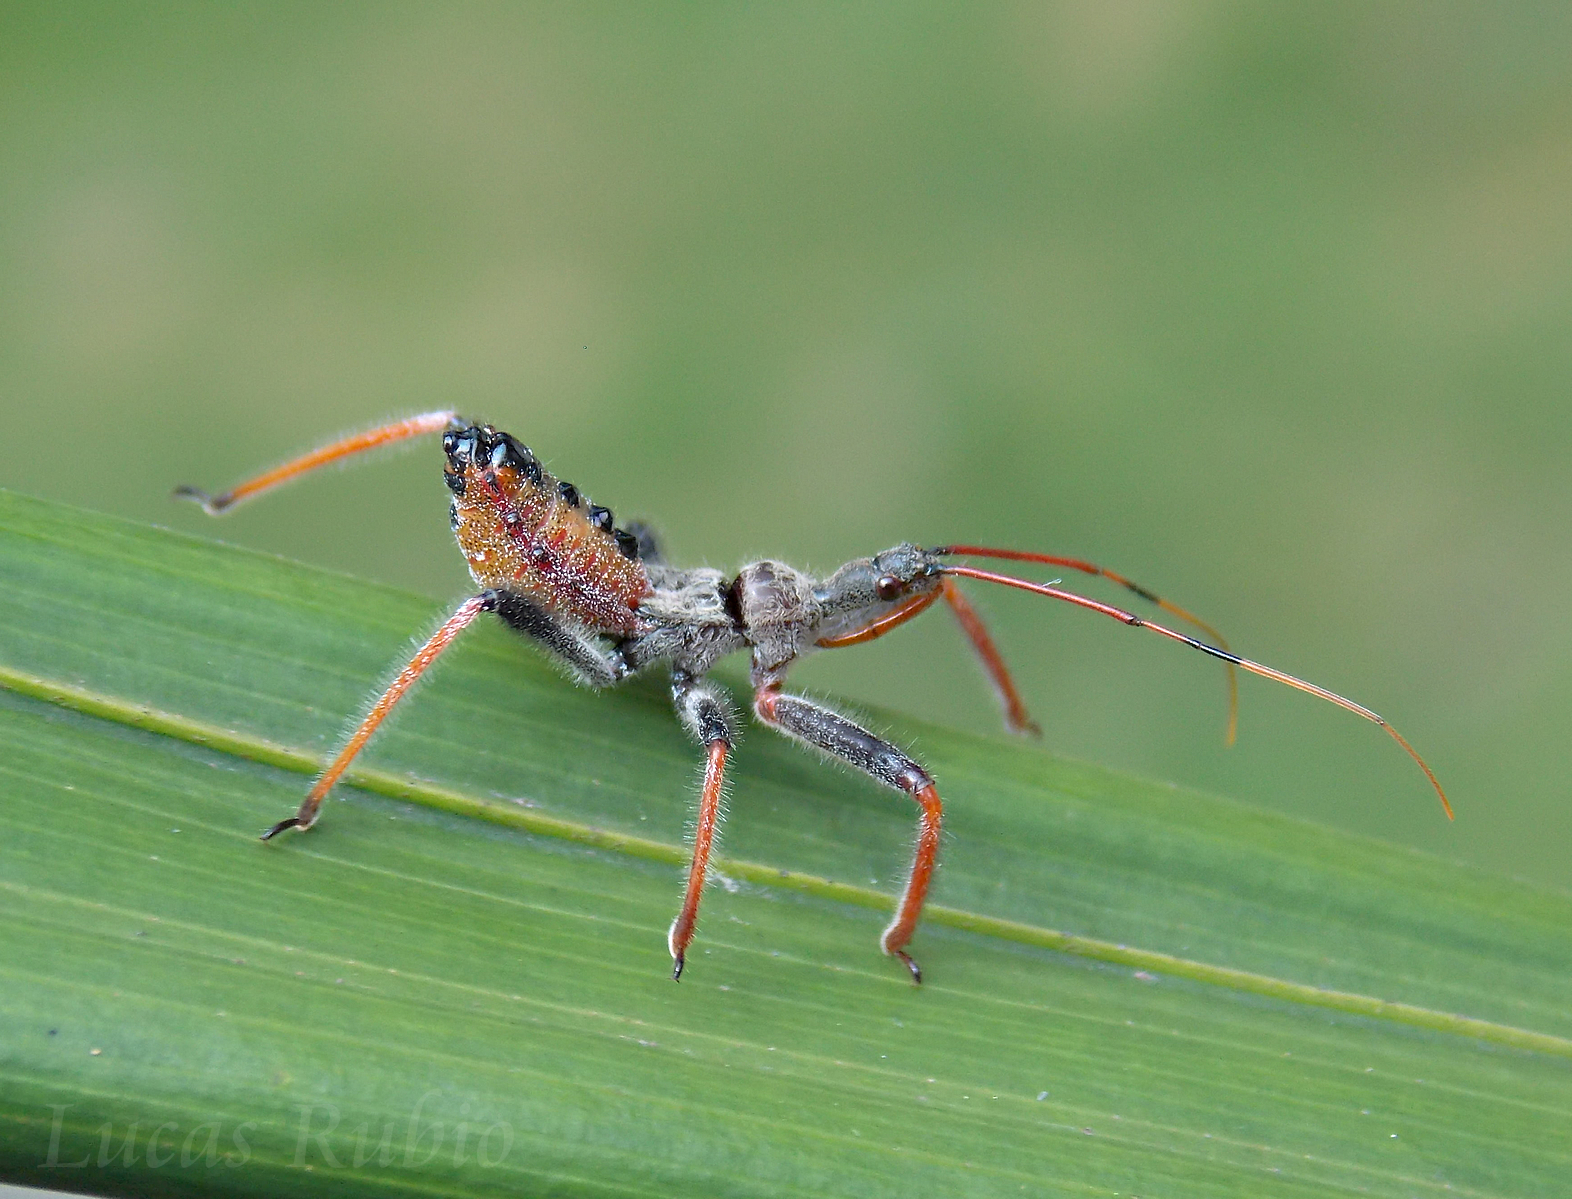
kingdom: Animalia
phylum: Arthropoda
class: Insecta
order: Hemiptera
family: Reduviidae
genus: Arilus
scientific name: Arilus carinatus
